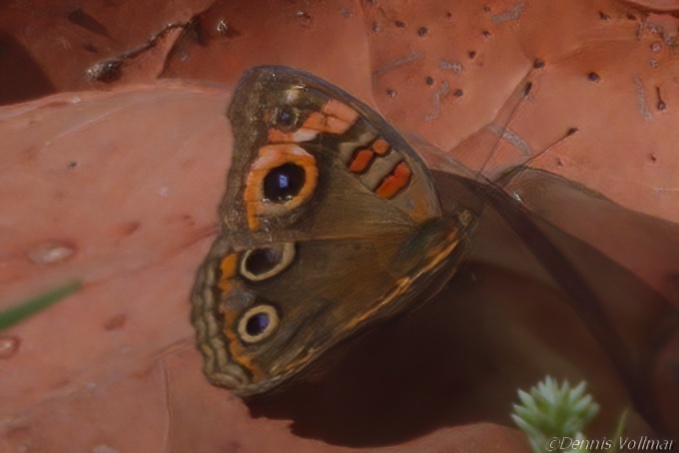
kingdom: Animalia
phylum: Arthropoda
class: Insecta
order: Lepidoptera
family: Nymphalidae
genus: Junonia
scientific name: Junonia neildi
